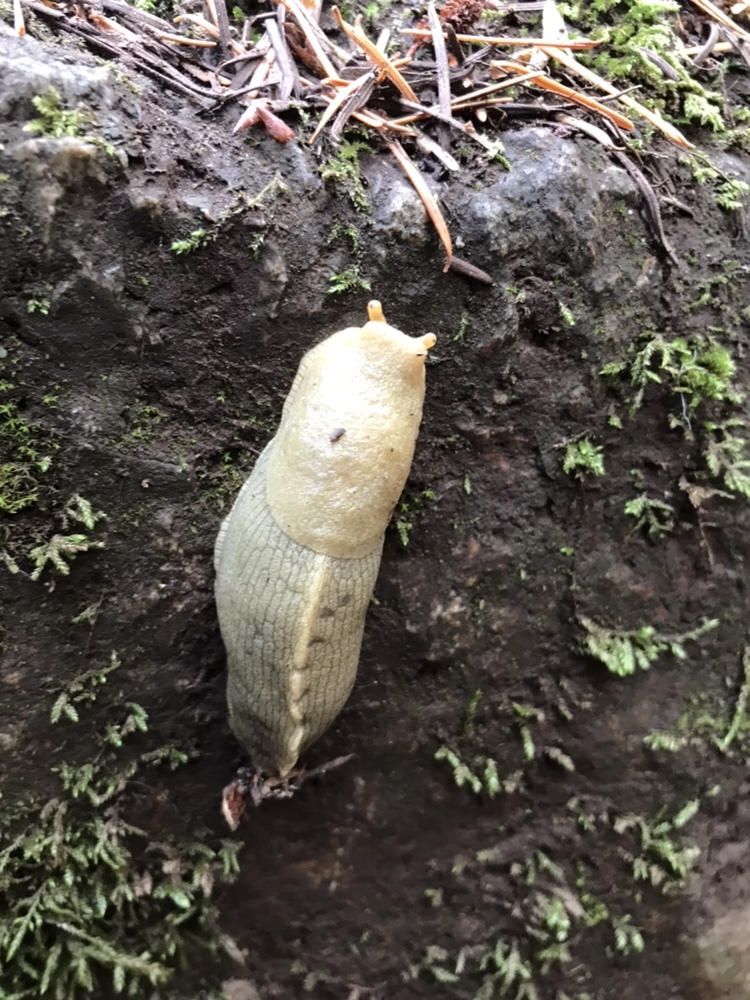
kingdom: Animalia
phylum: Mollusca
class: Gastropoda
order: Stylommatophora
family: Ariolimacidae
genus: Ariolimax
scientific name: Ariolimax columbianus
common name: Pacific banana slug
